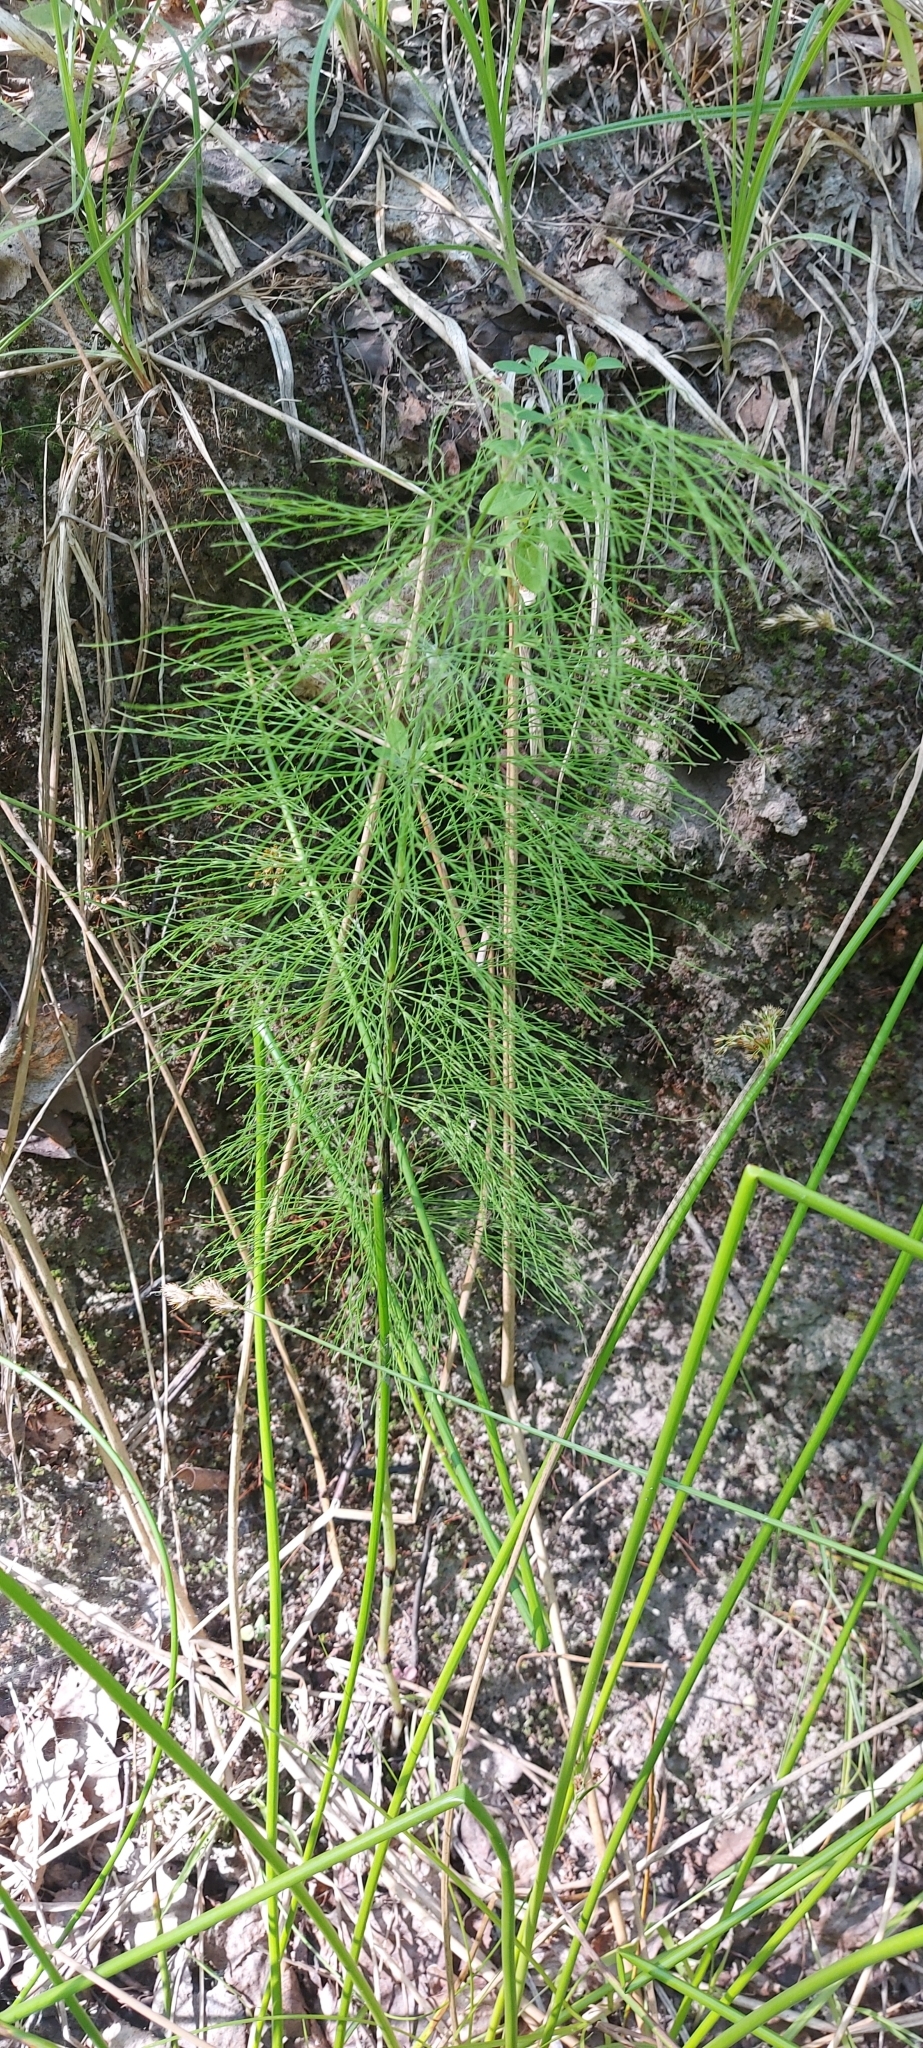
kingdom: Plantae
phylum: Tracheophyta
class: Polypodiopsida
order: Equisetales
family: Equisetaceae
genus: Equisetum
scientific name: Equisetum sylvaticum
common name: Wood horsetail
